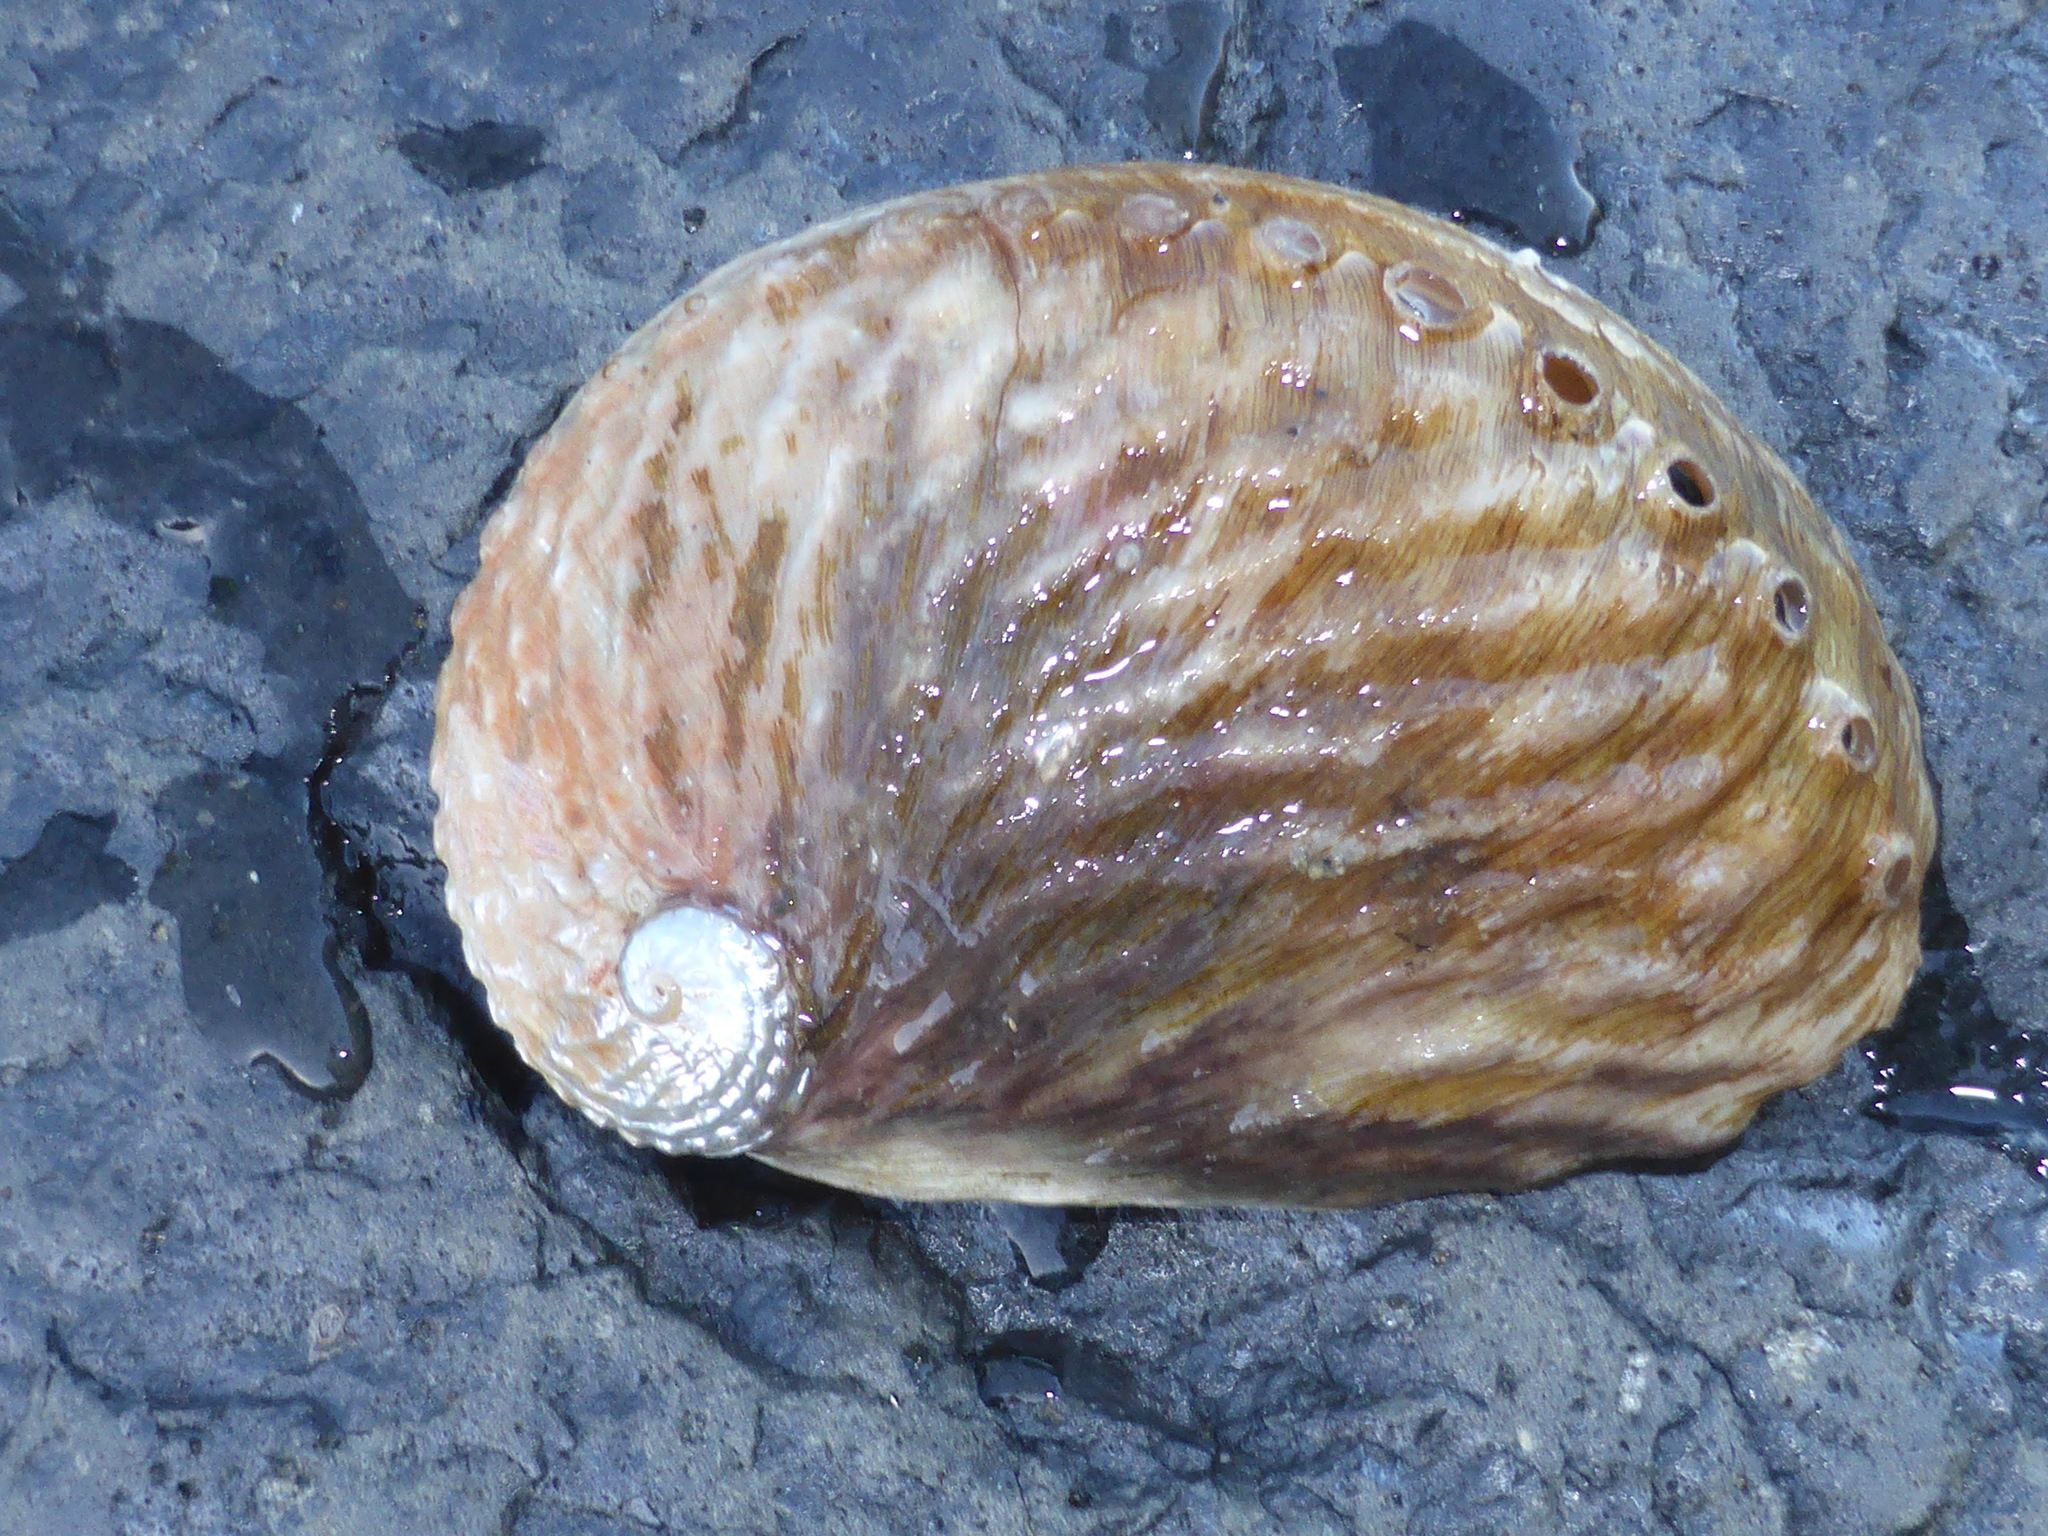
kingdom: Animalia
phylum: Mollusca
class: Gastropoda
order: Lepetellida
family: Haliotidae
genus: Haliotis
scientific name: Haliotis australis
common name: Silver abalone
